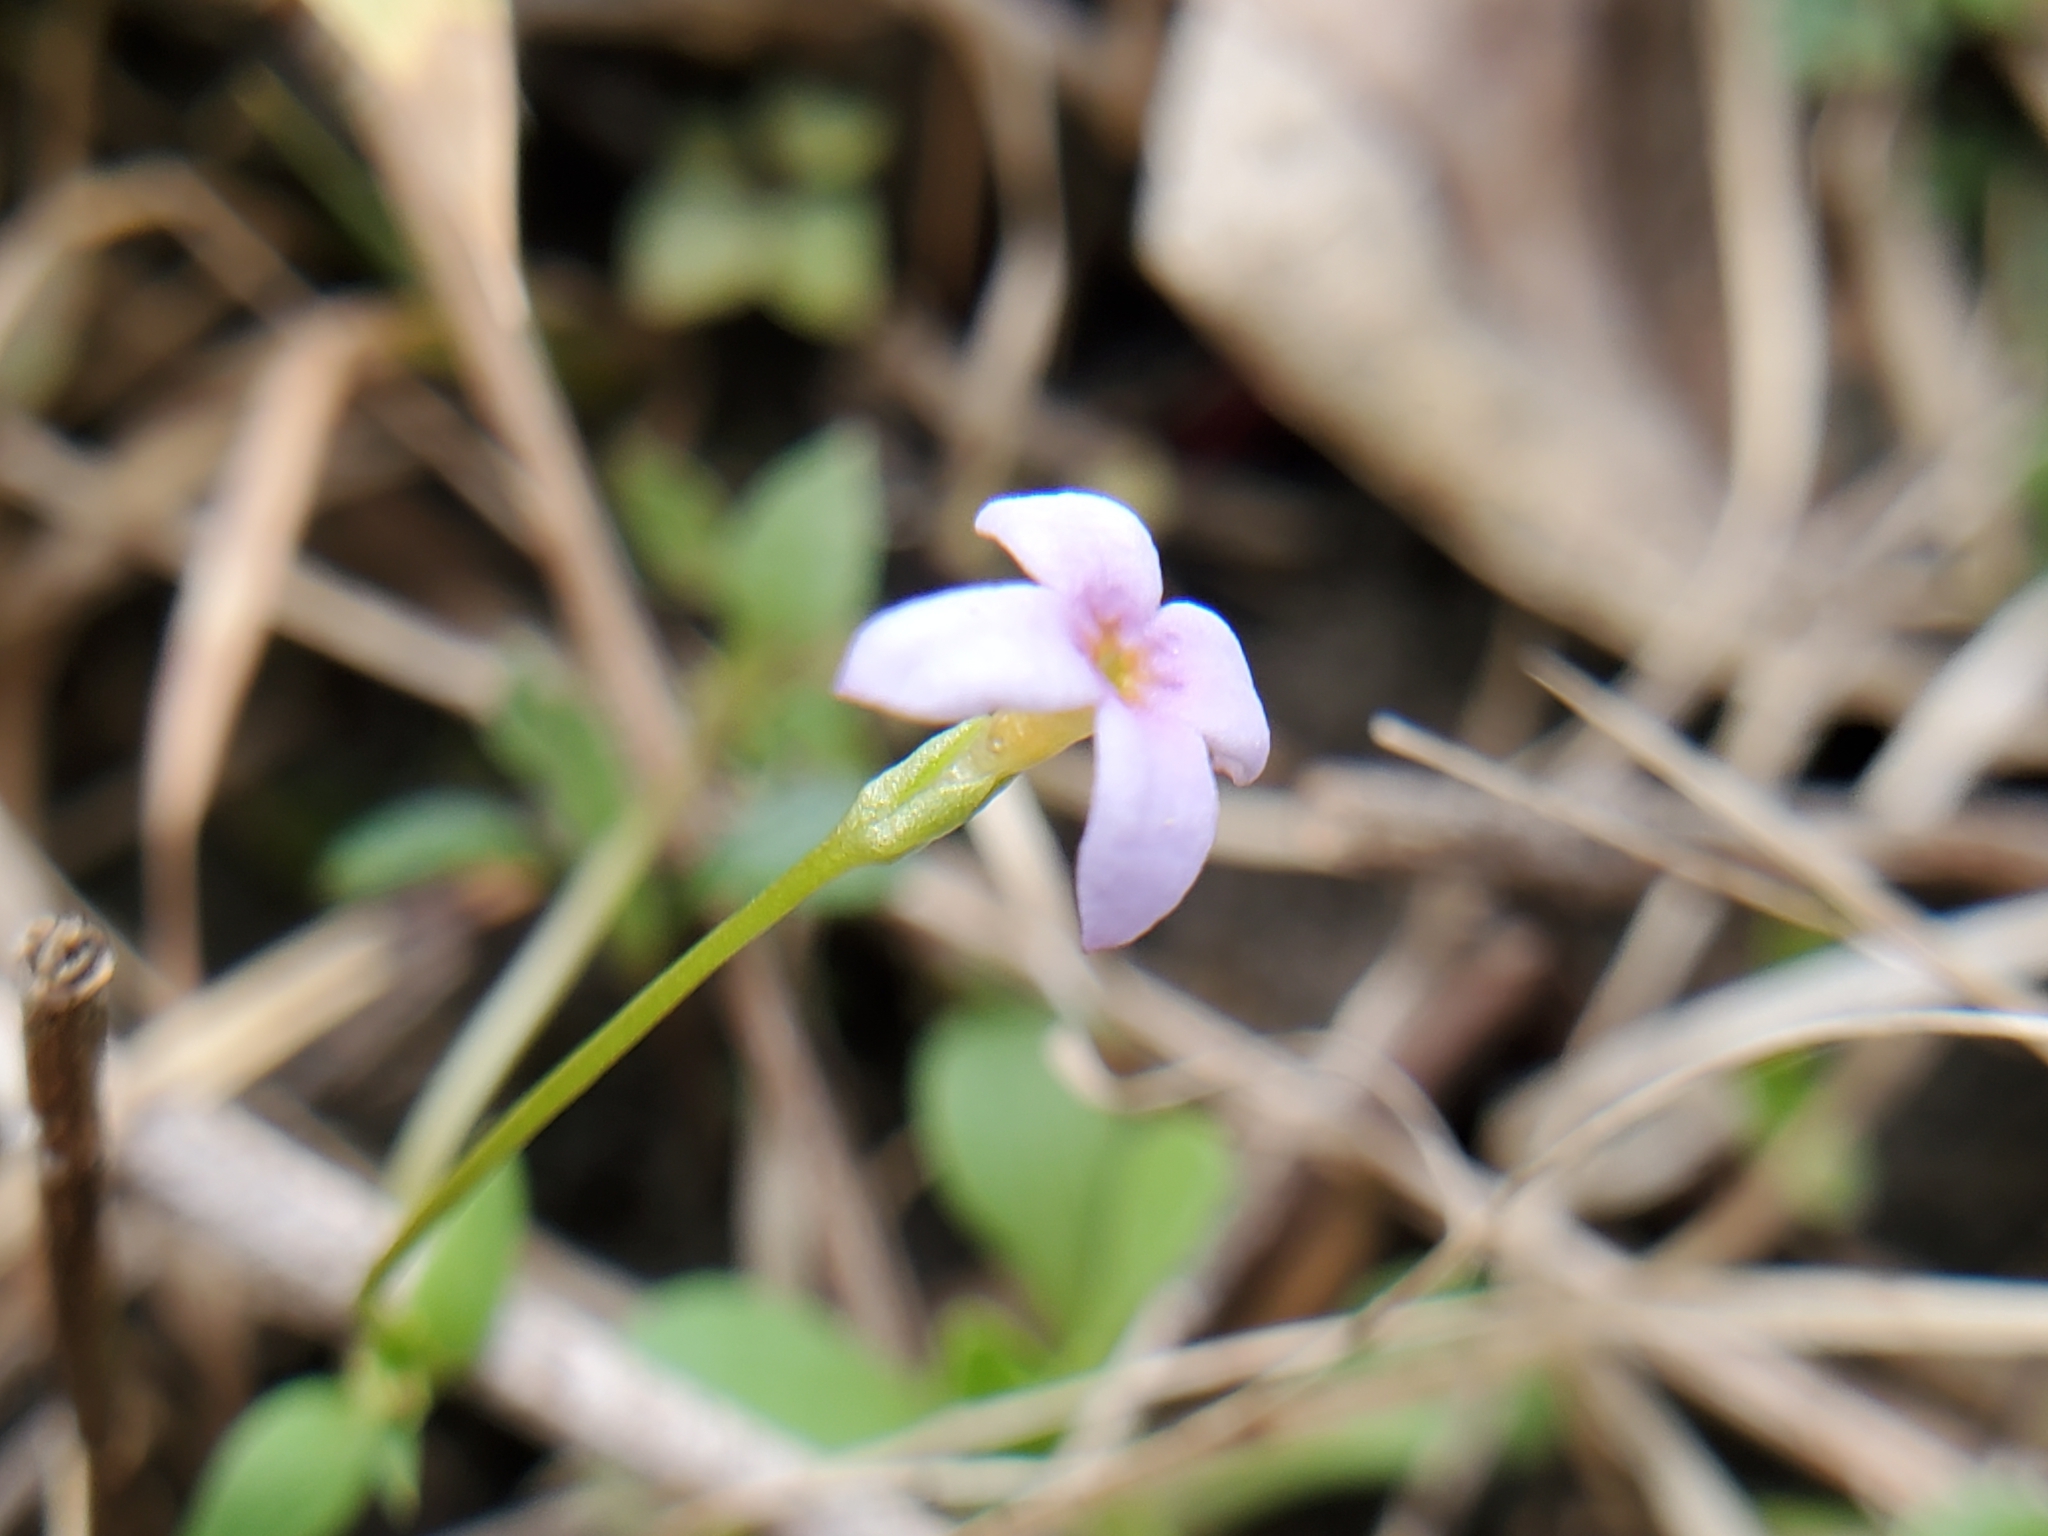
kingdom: Plantae
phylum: Tracheophyta
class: Magnoliopsida
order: Gentianales
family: Rubiaceae
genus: Houstonia
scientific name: Houstonia pusilla
